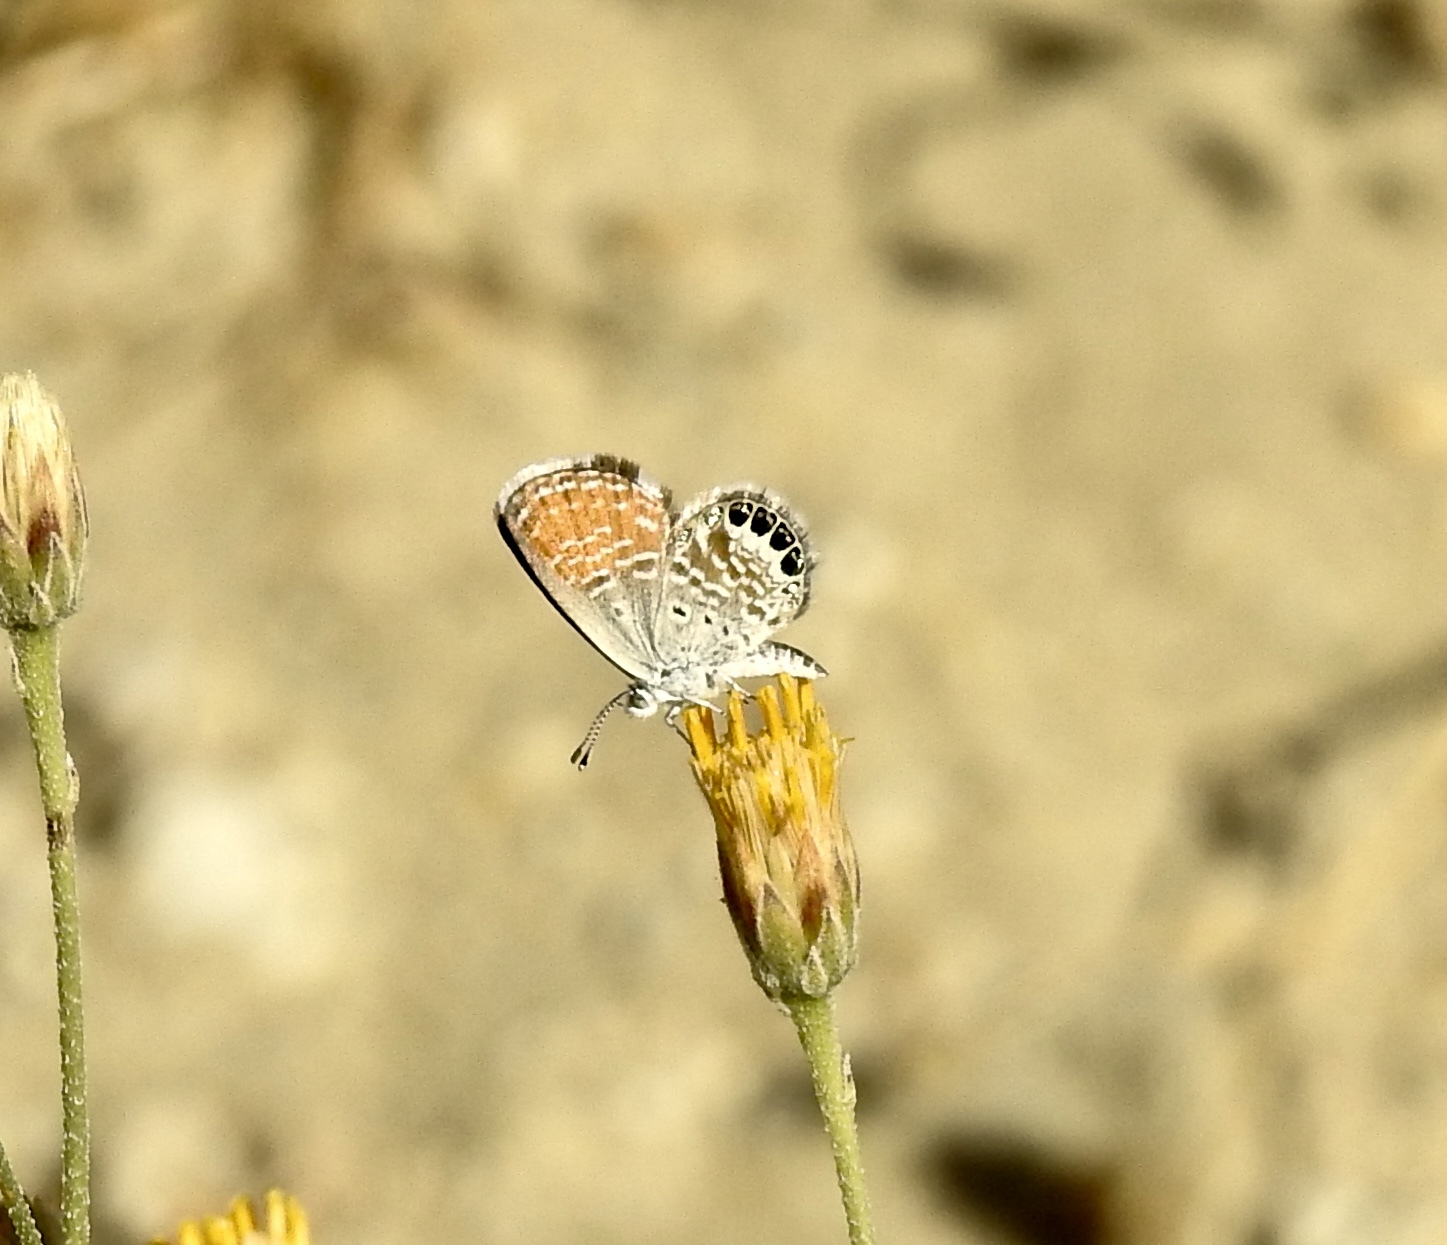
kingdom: Animalia
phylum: Arthropoda
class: Insecta
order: Lepidoptera
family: Lycaenidae
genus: Brephidium
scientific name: Brephidium exilis
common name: Pygmy blue
